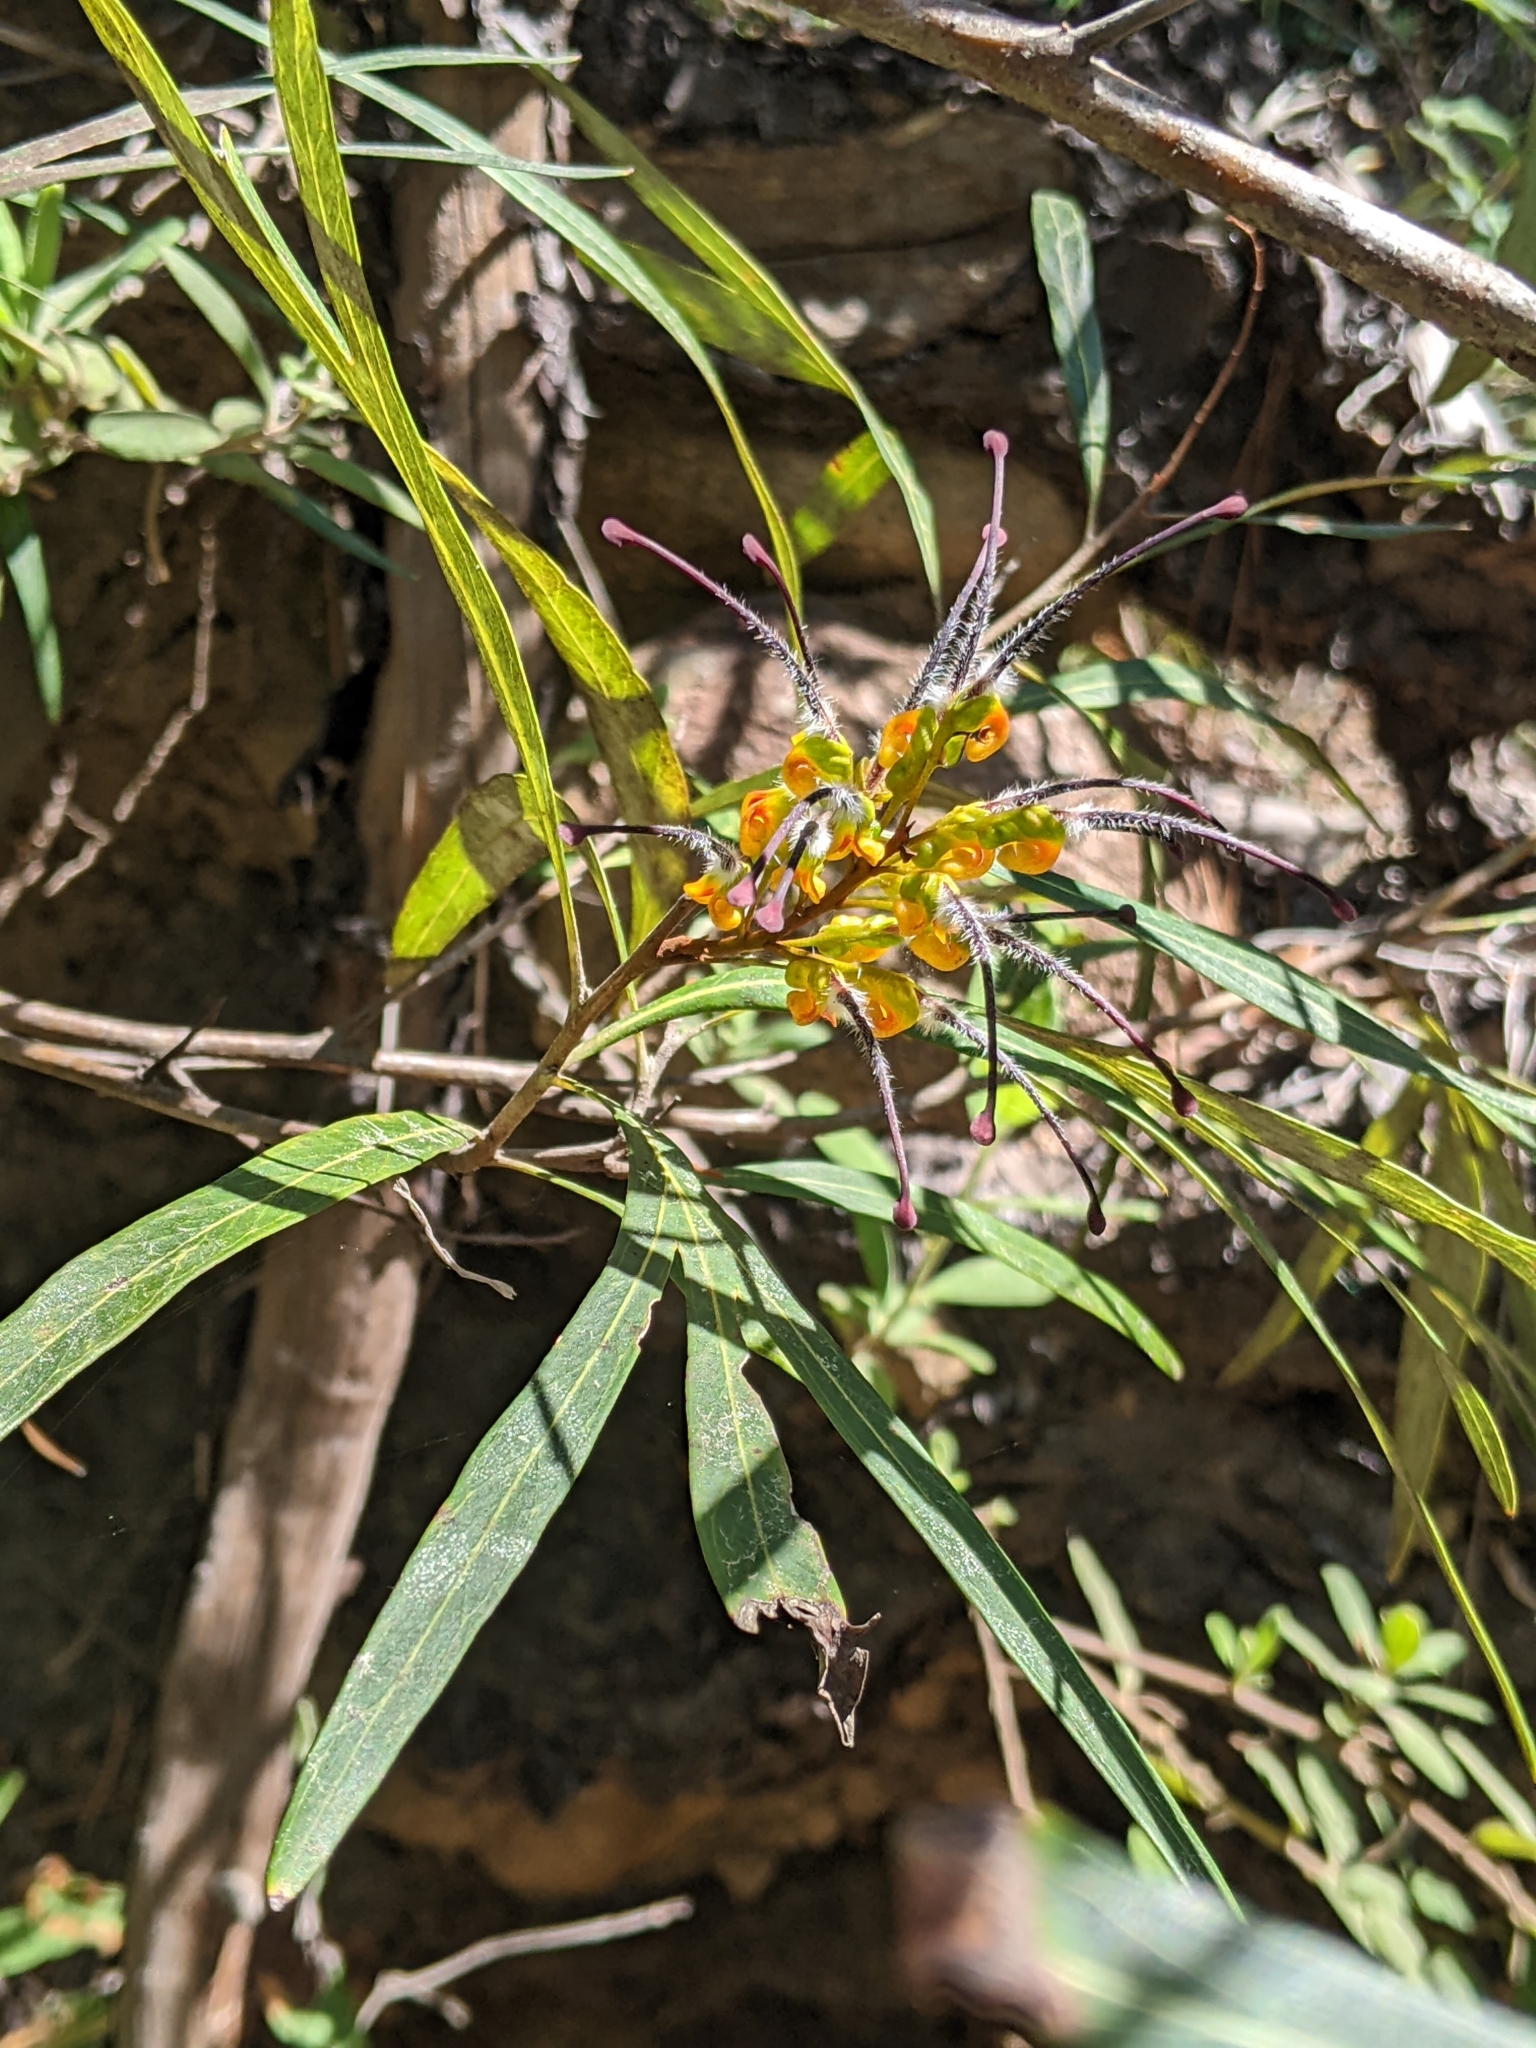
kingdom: Plantae
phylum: Tracheophyta
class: Magnoliopsida
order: Proteales
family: Proteaceae
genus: Grevillea
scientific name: Grevillea venusta
